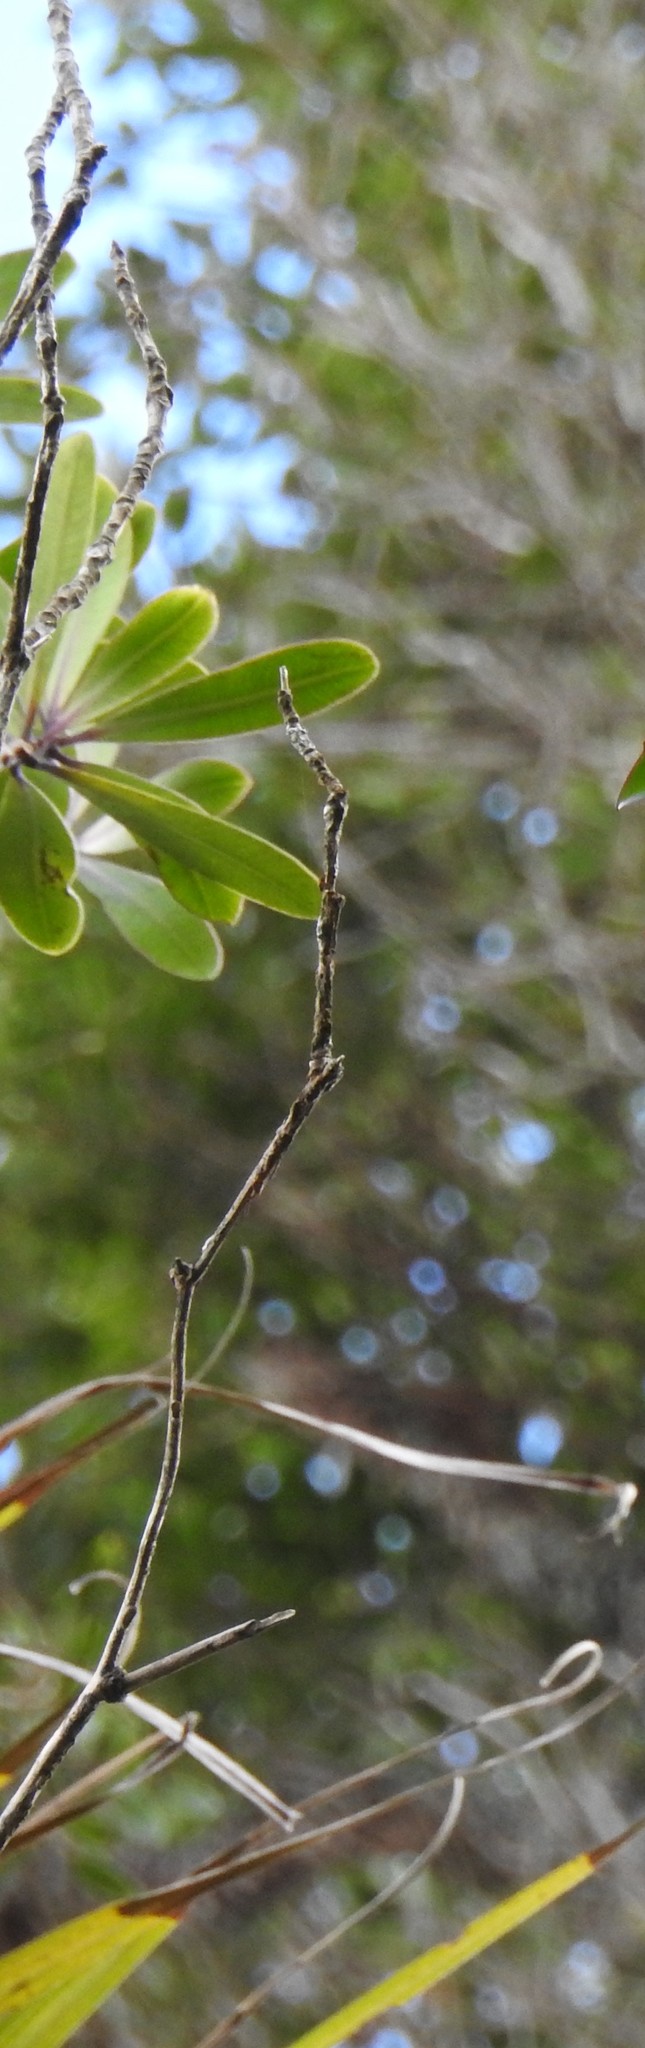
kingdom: Plantae
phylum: Tracheophyta
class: Magnoliopsida
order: Apiales
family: Pittosporaceae
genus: Pittosporum
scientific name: Pittosporum kirkii
